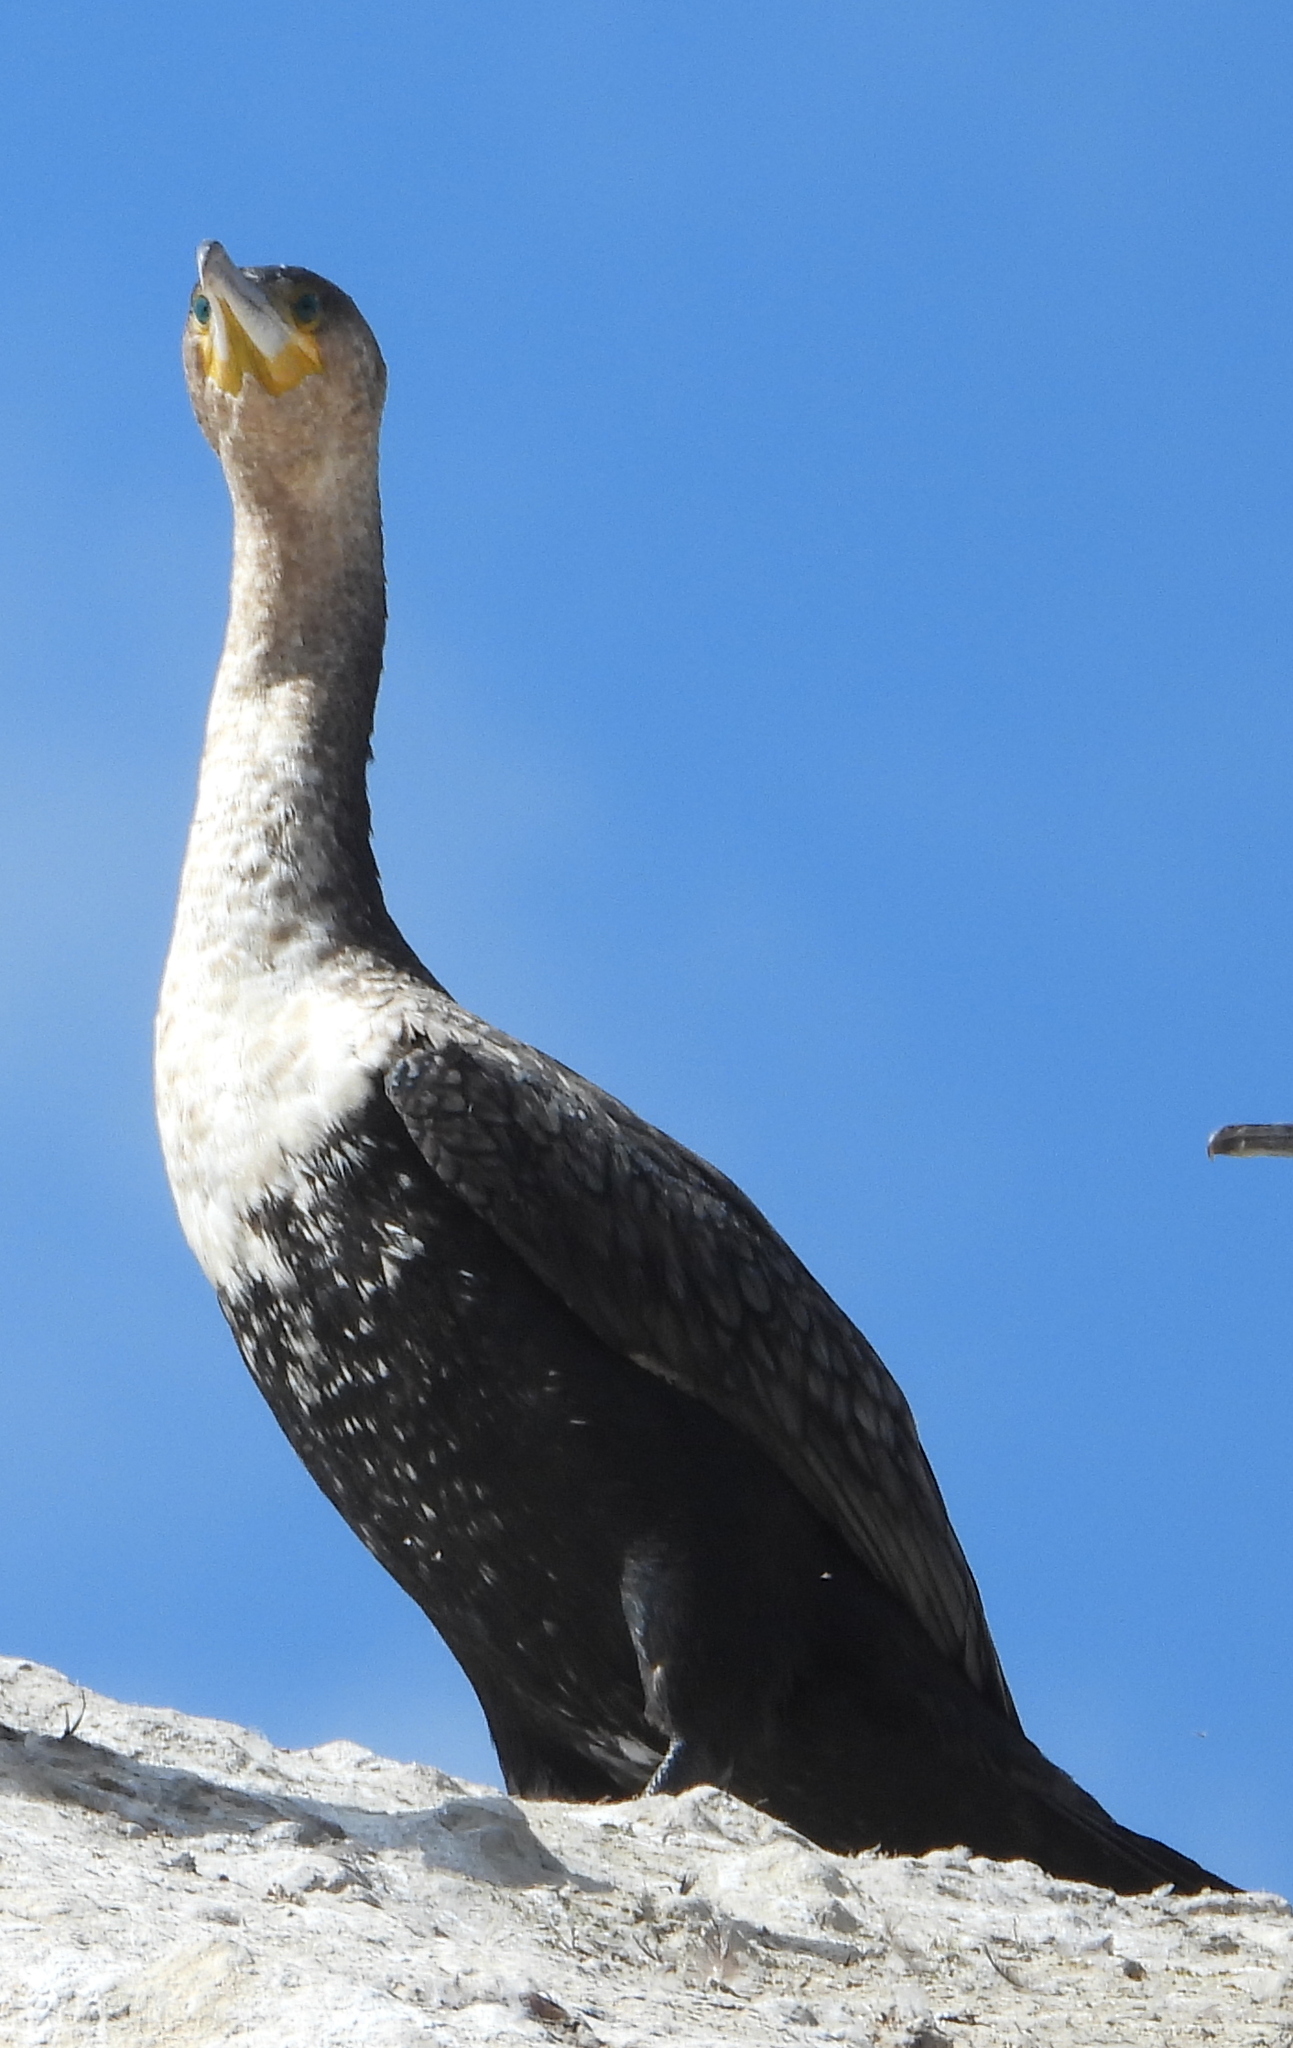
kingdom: Animalia
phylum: Chordata
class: Aves
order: Suliformes
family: Phalacrocoracidae
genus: Phalacrocorax
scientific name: Phalacrocorax carbo
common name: Great cormorant
